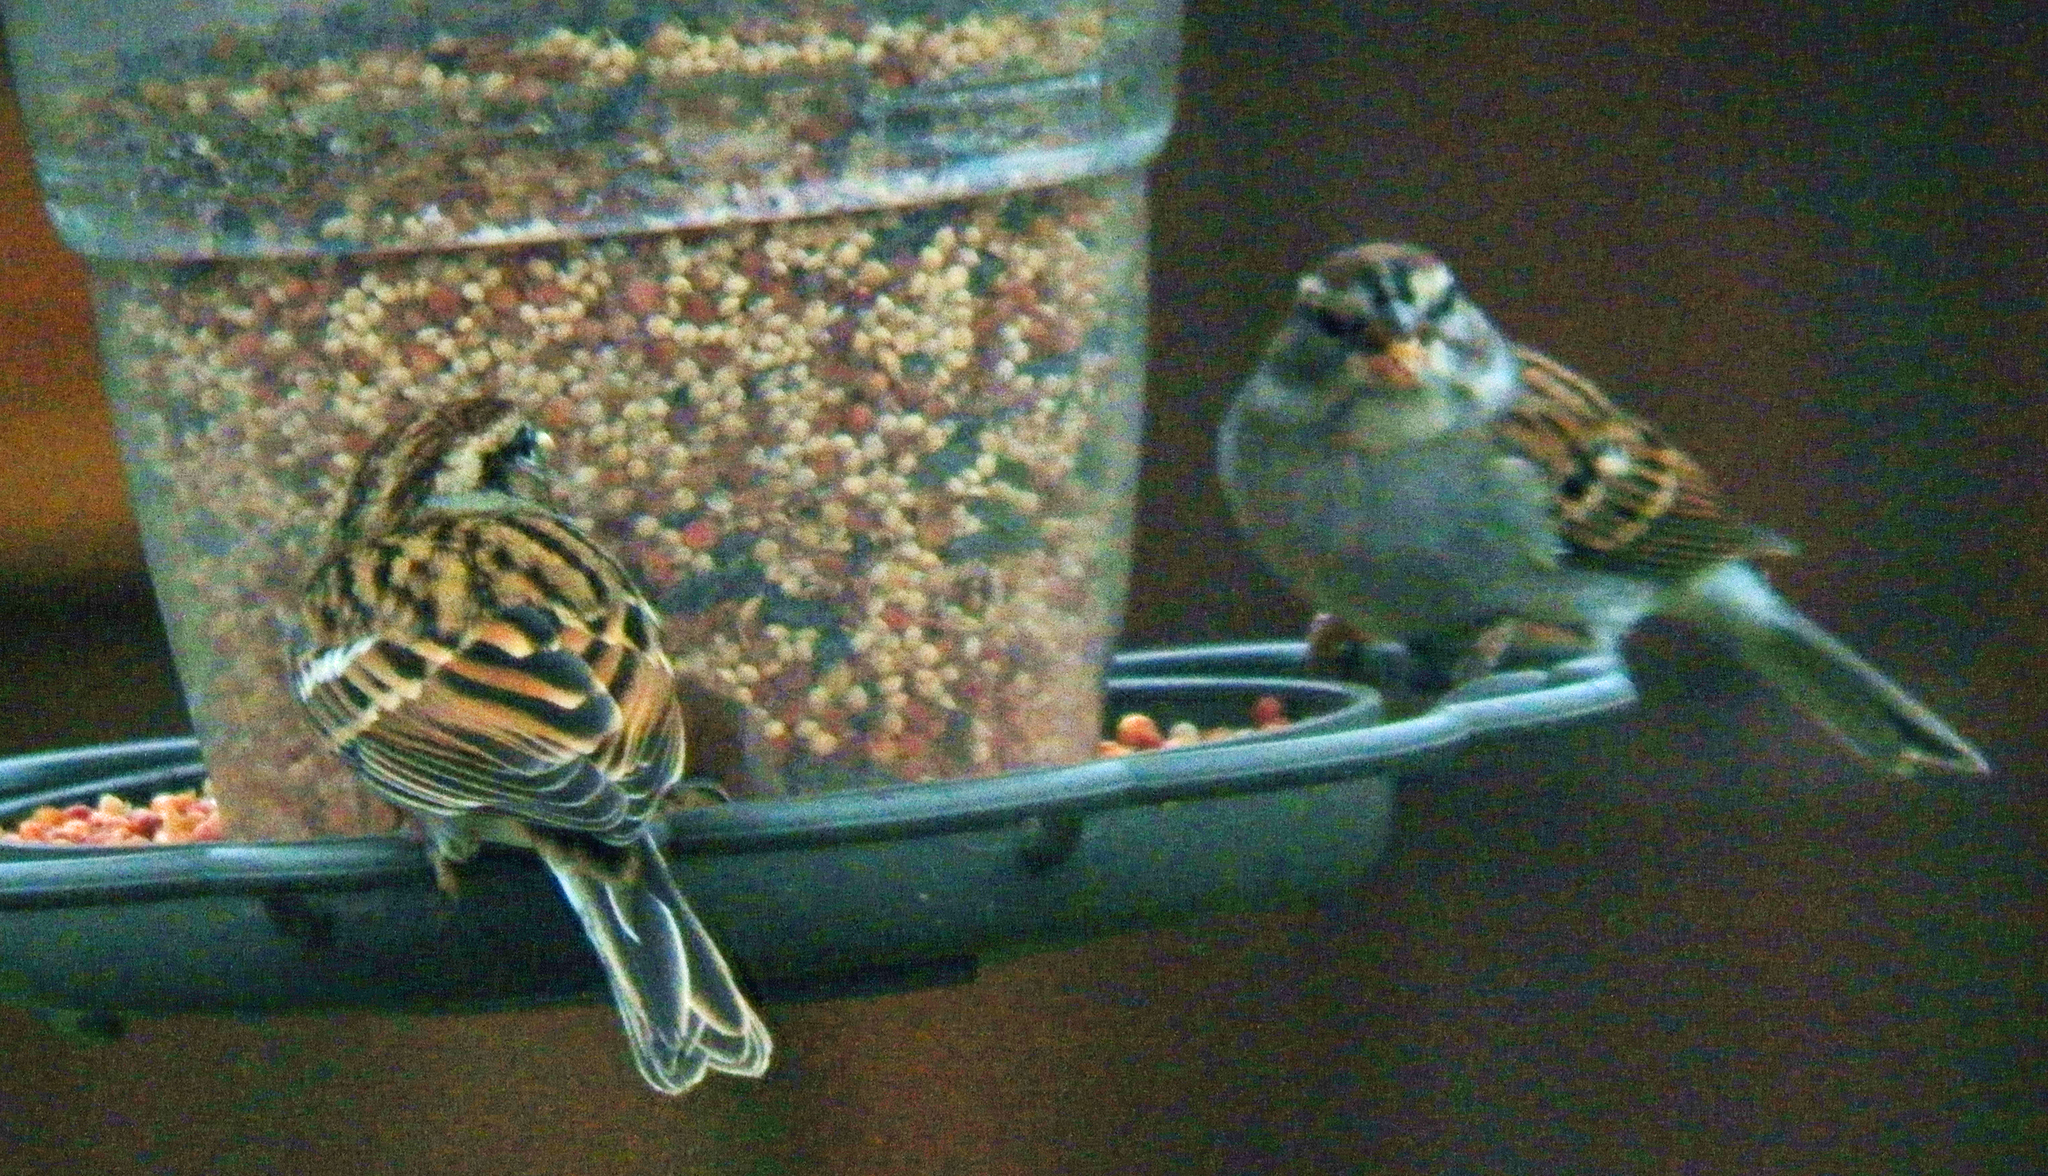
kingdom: Animalia
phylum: Chordata
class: Aves
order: Passeriformes
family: Passerellidae
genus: Spizella
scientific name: Spizella passerina
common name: Chipping sparrow
